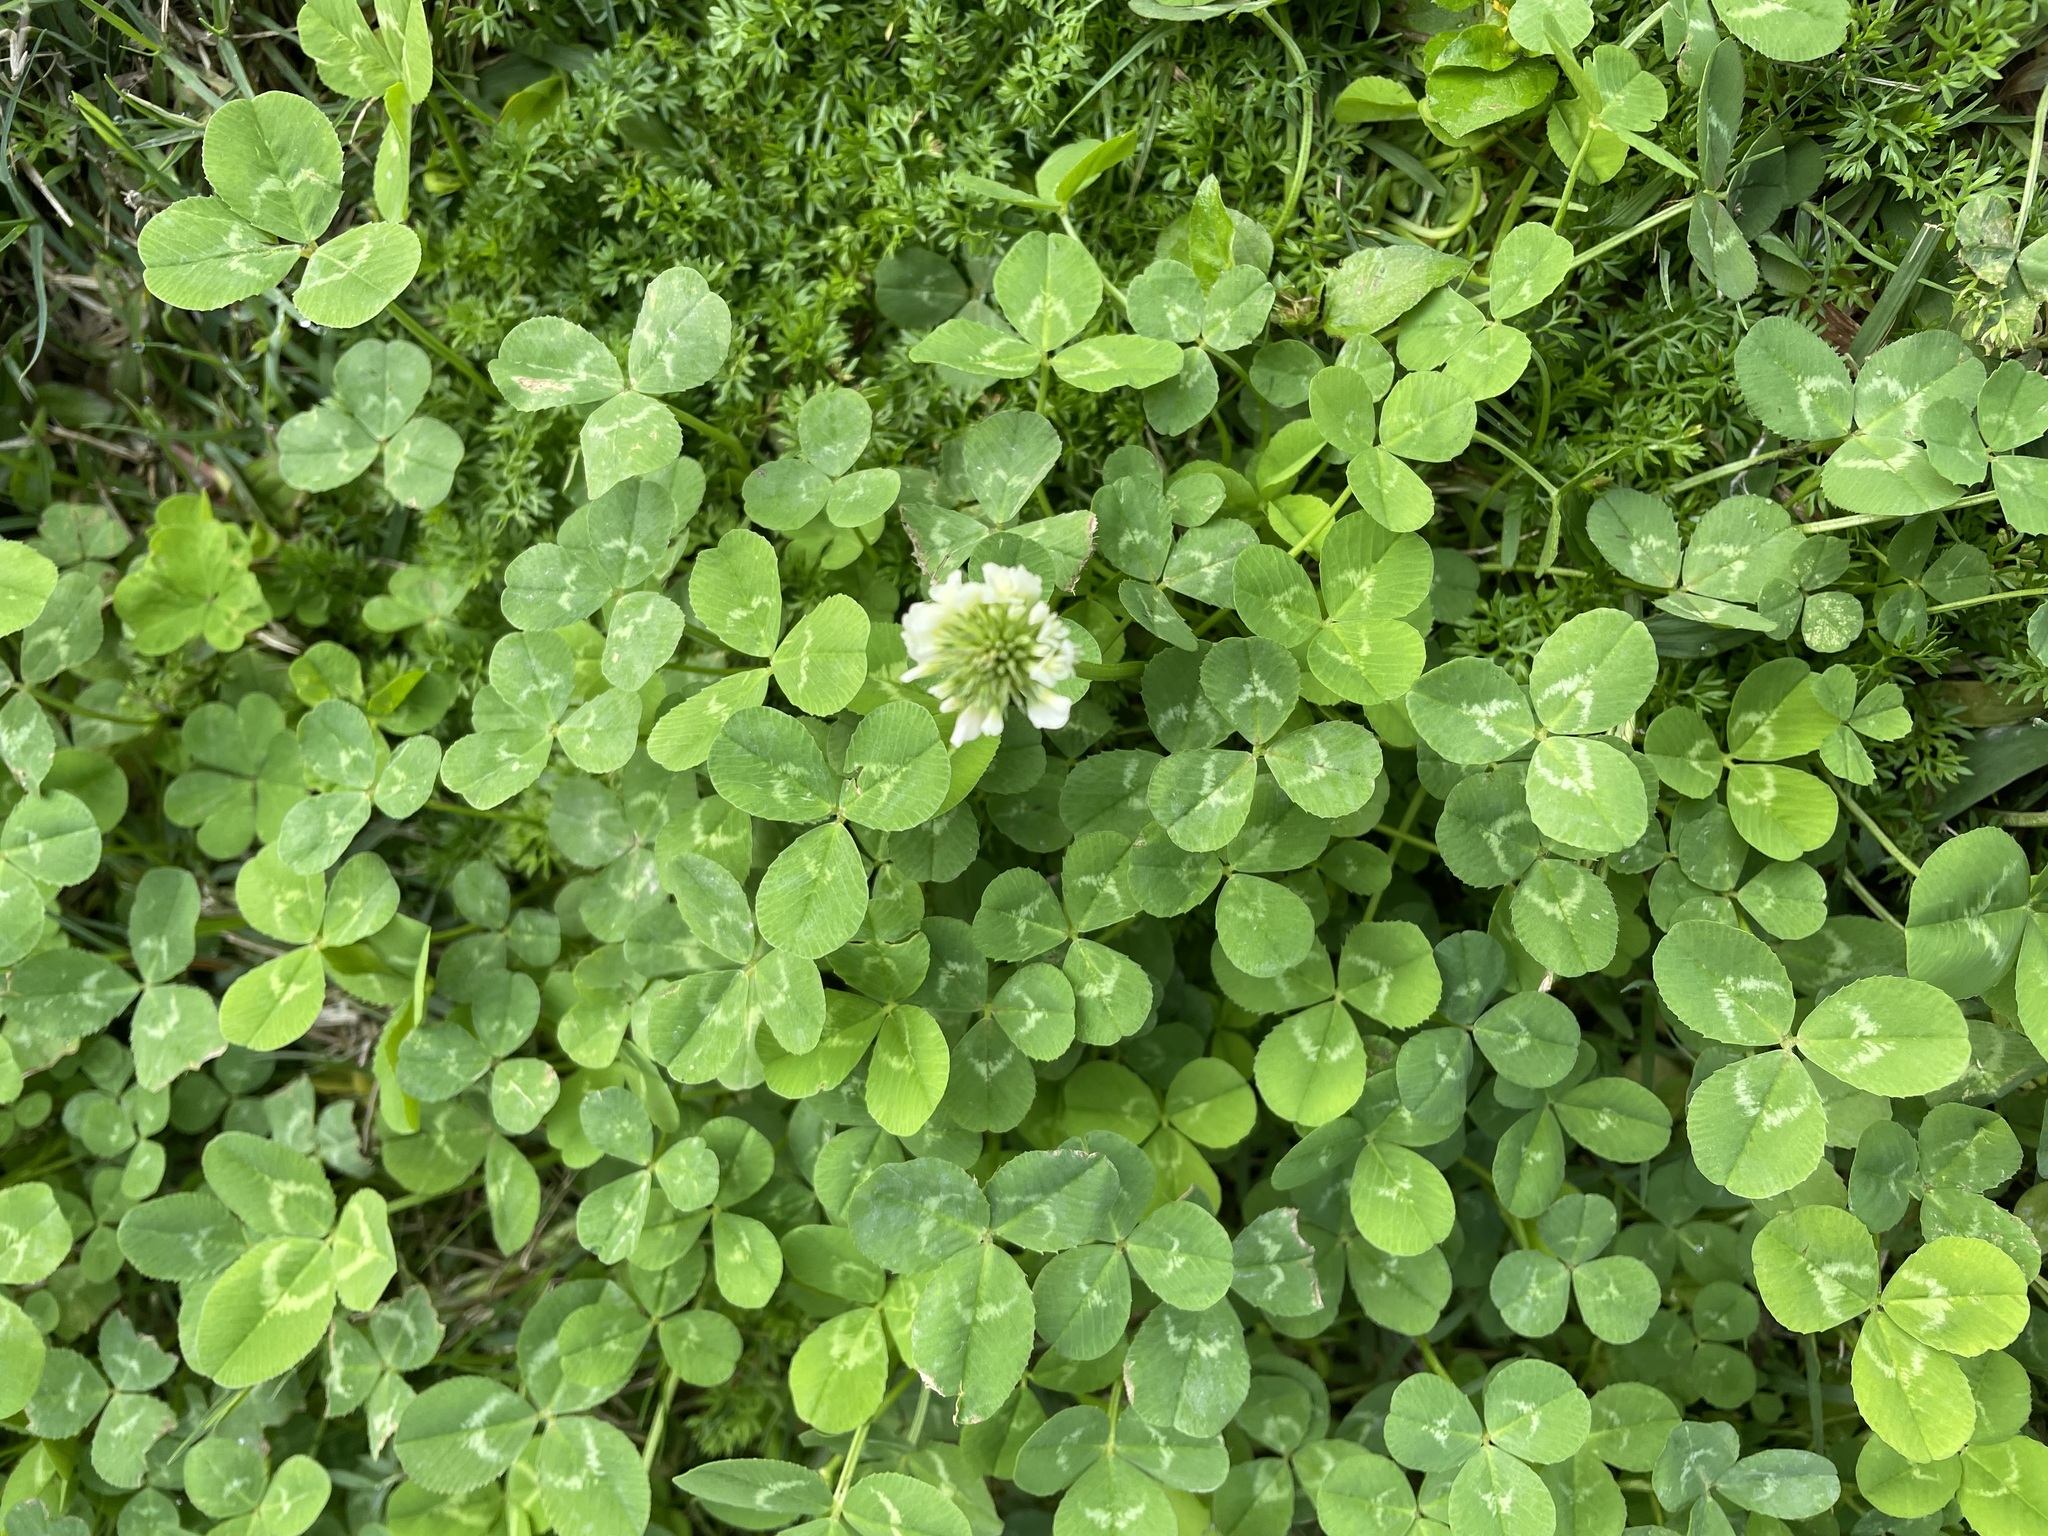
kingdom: Plantae
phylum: Tracheophyta
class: Magnoliopsida
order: Fabales
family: Fabaceae
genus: Trifolium
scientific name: Trifolium repens
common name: White clover
